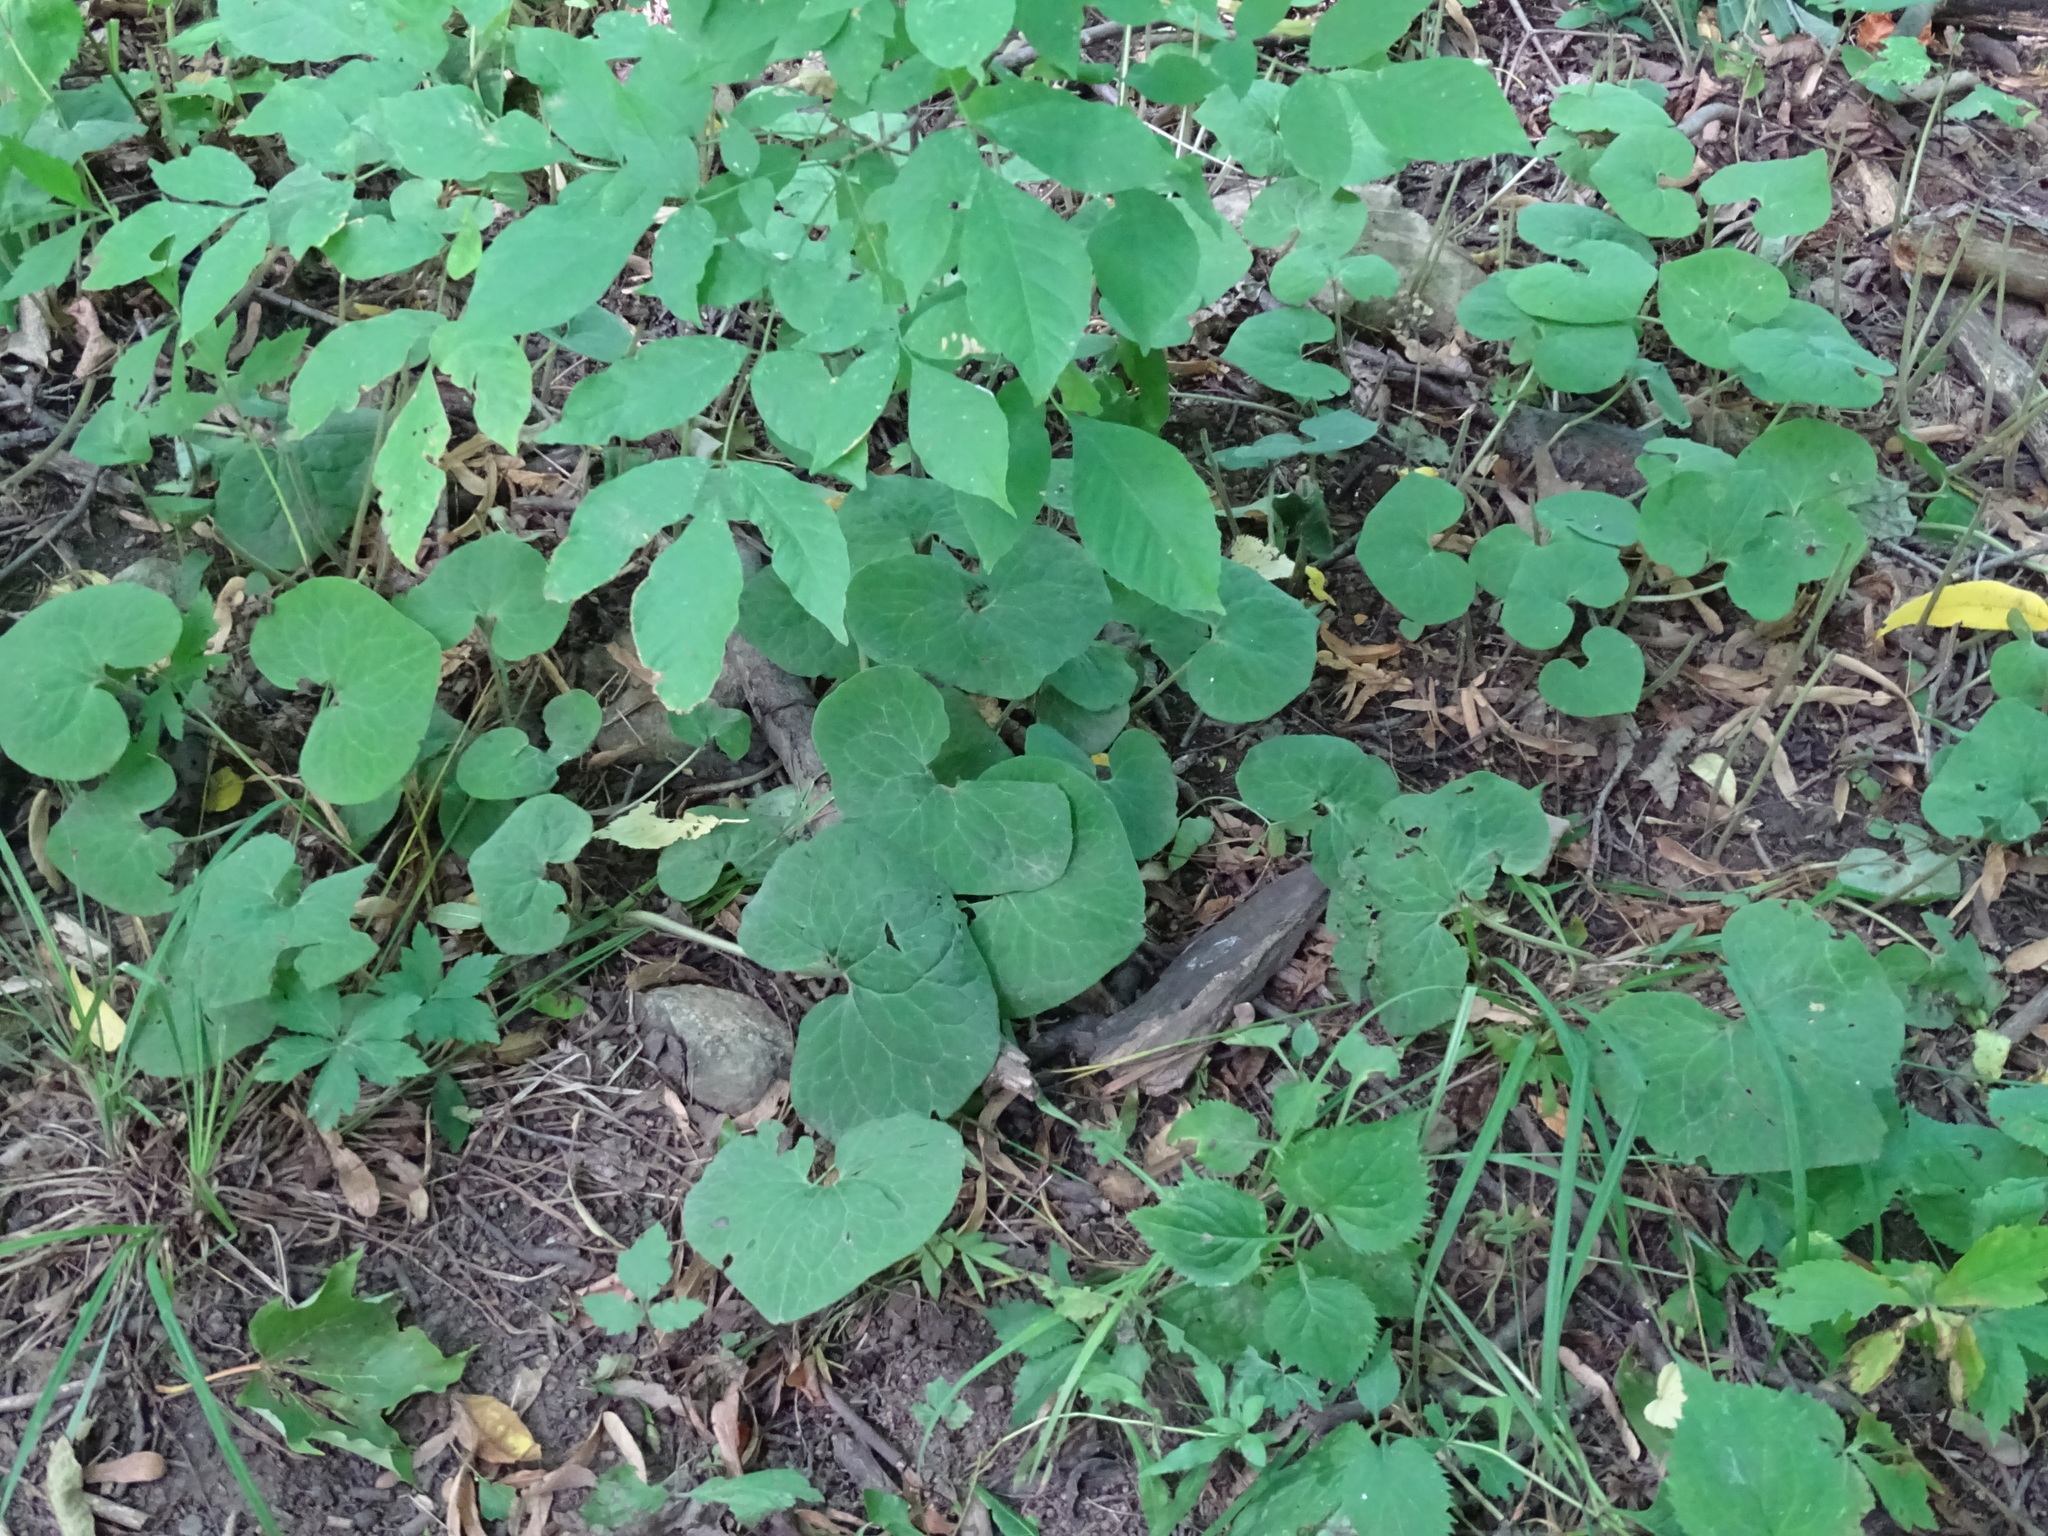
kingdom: Plantae
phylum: Tracheophyta
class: Magnoliopsida
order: Piperales
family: Aristolochiaceae
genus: Asarum
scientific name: Asarum canadense
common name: Wild ginger
